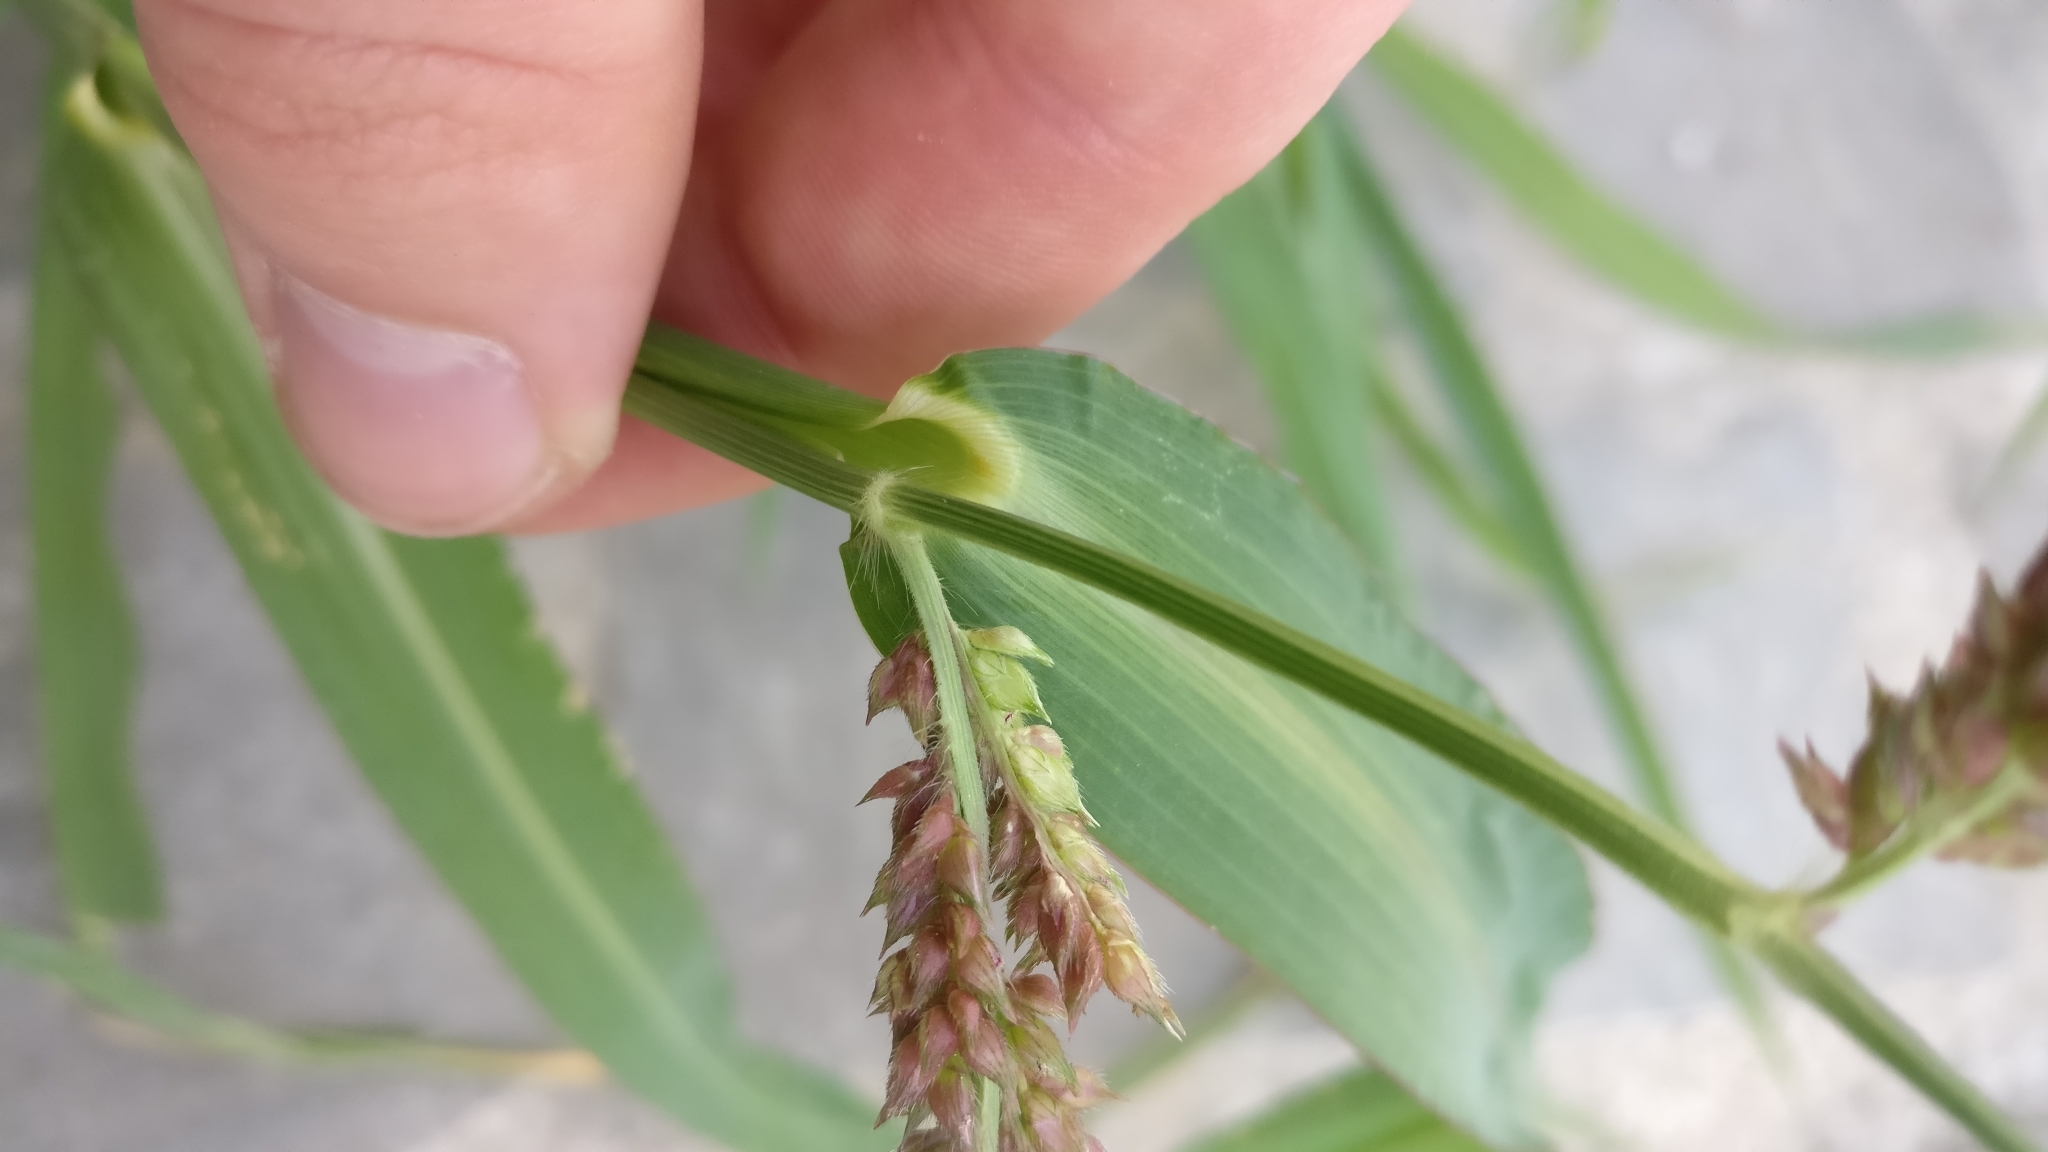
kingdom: Plantae
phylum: Tracheophyta
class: Liliopsida
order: Poales
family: Poaceae
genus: Echinochloa
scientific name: Echinochloa crus-galli
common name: Cockspur
